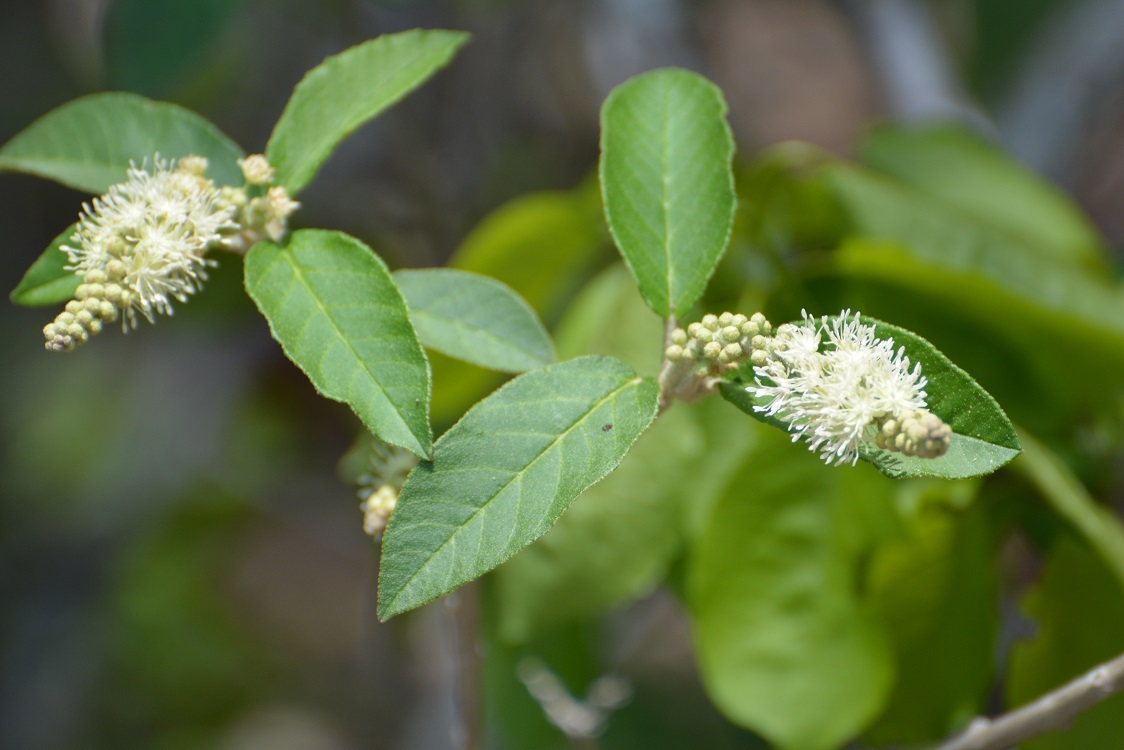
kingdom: Plantae
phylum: Tracheophyta
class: Magnoliopsida
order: Malpighiales
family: Euphorbiaceae
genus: Croton
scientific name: Croton cortesianus
